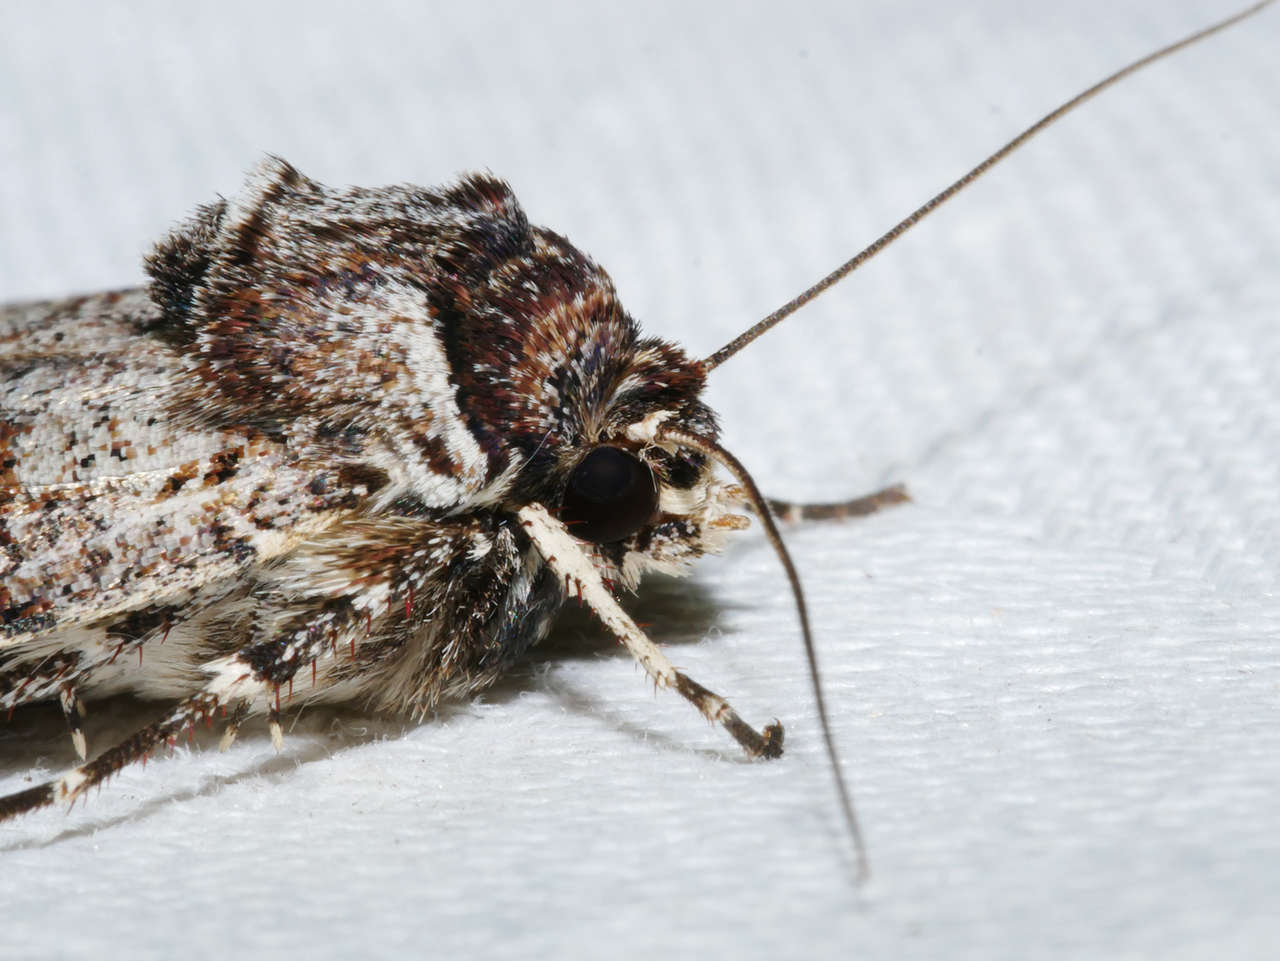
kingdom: Animalia
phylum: Arthropoda
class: Insecta
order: Lepidoptera
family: Noctuidae
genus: Agrotis
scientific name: Agrotis porphyricollis
